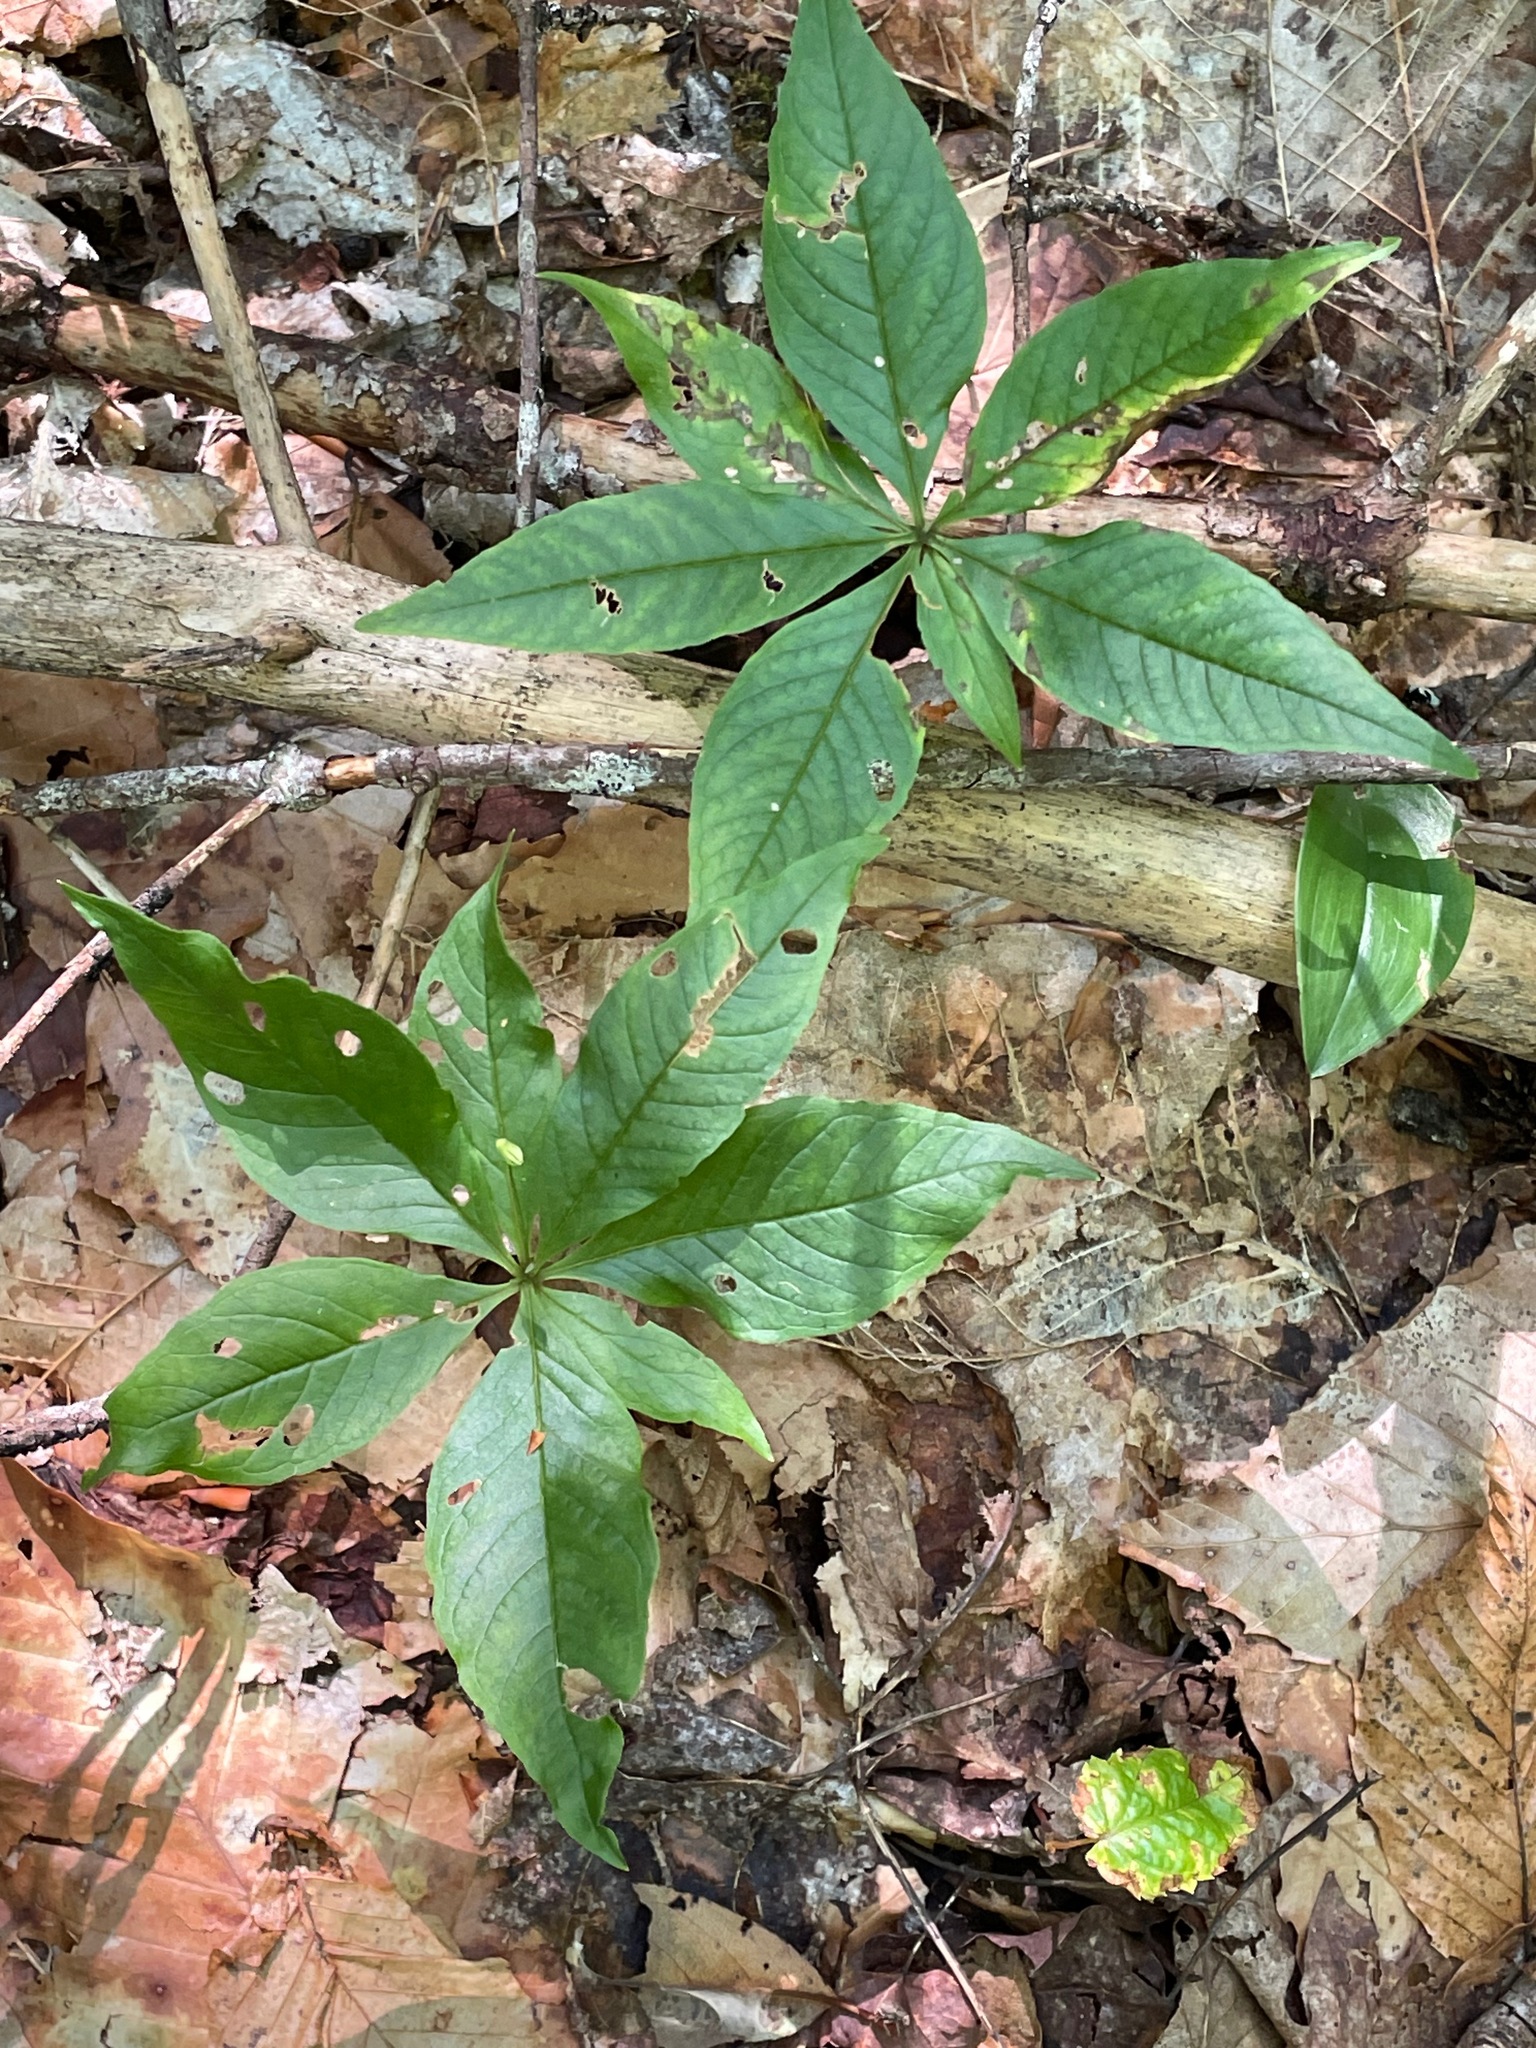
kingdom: Plantae
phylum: Tracheophyta
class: Magnoliopsida
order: Ericales
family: Primulaceae
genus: Lysimachia
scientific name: Lysimachia borealis
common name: American starflower
